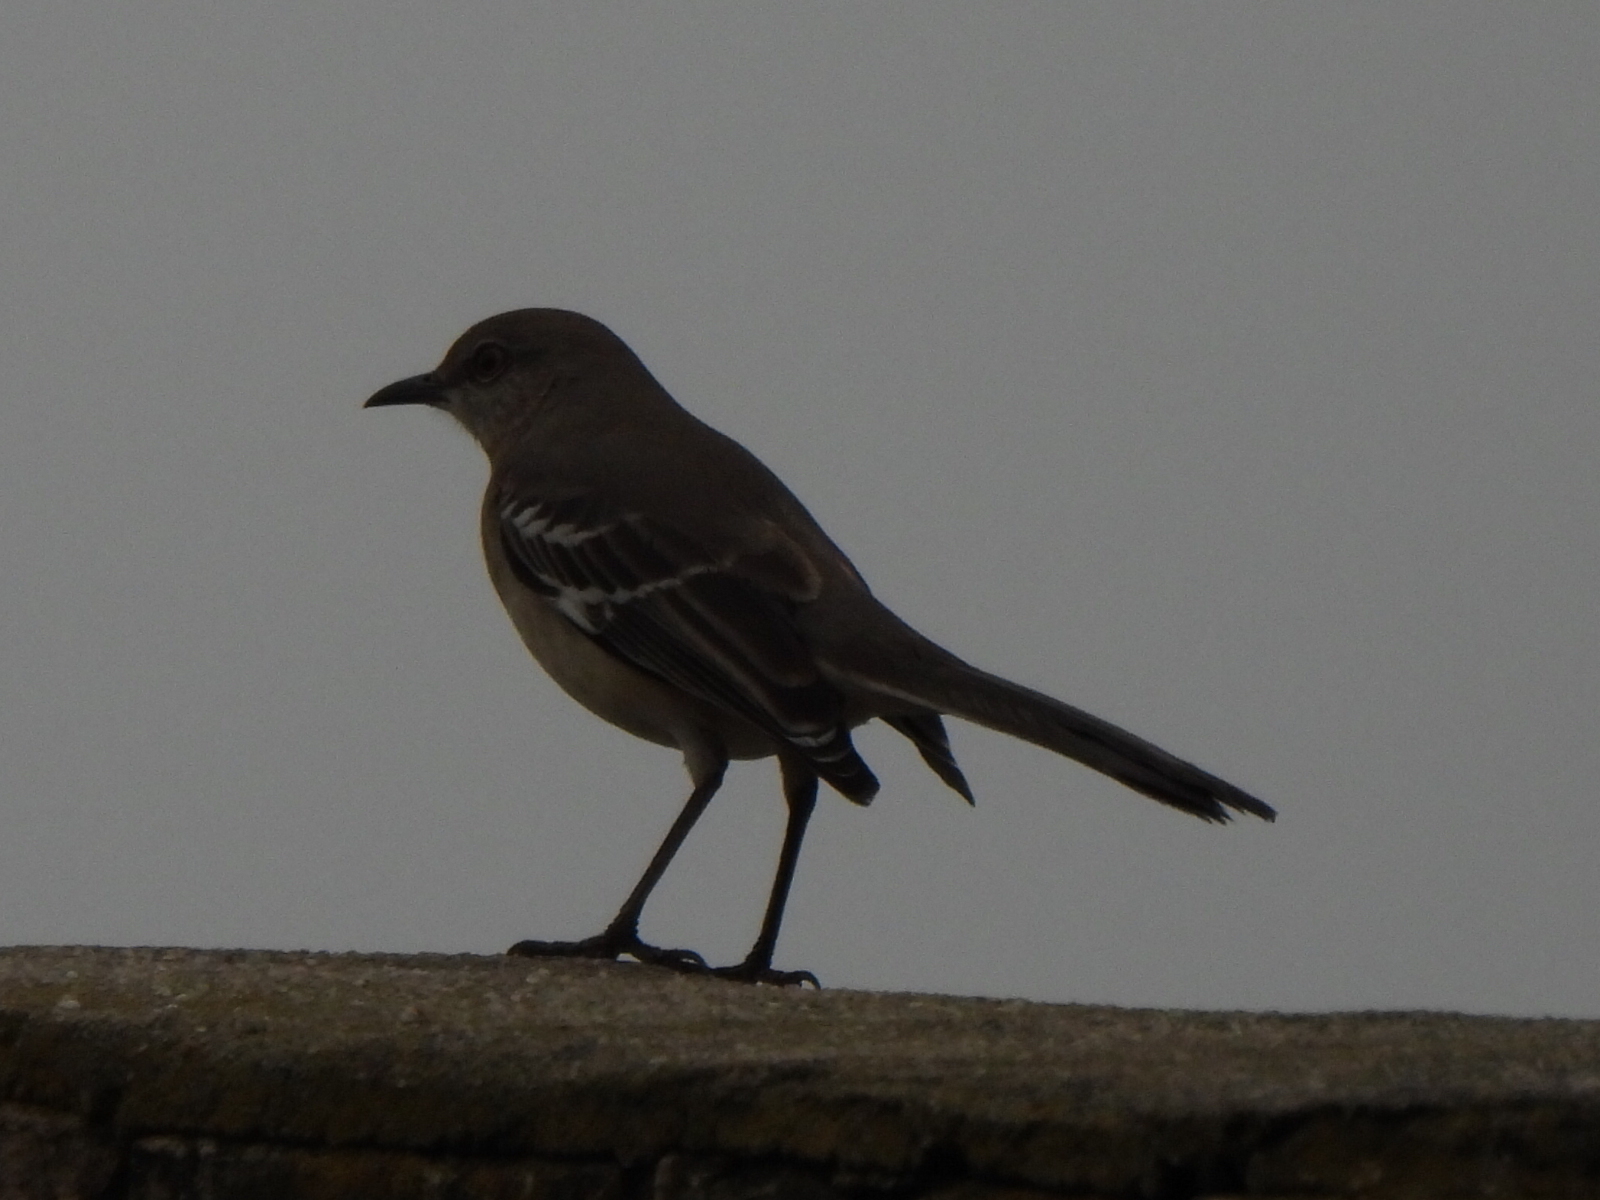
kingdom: Animalia
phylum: Chordata
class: Aves
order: Passeriformes
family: Mimidae
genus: Mimus
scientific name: Mimus polyglottos
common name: Northern mockingbird
